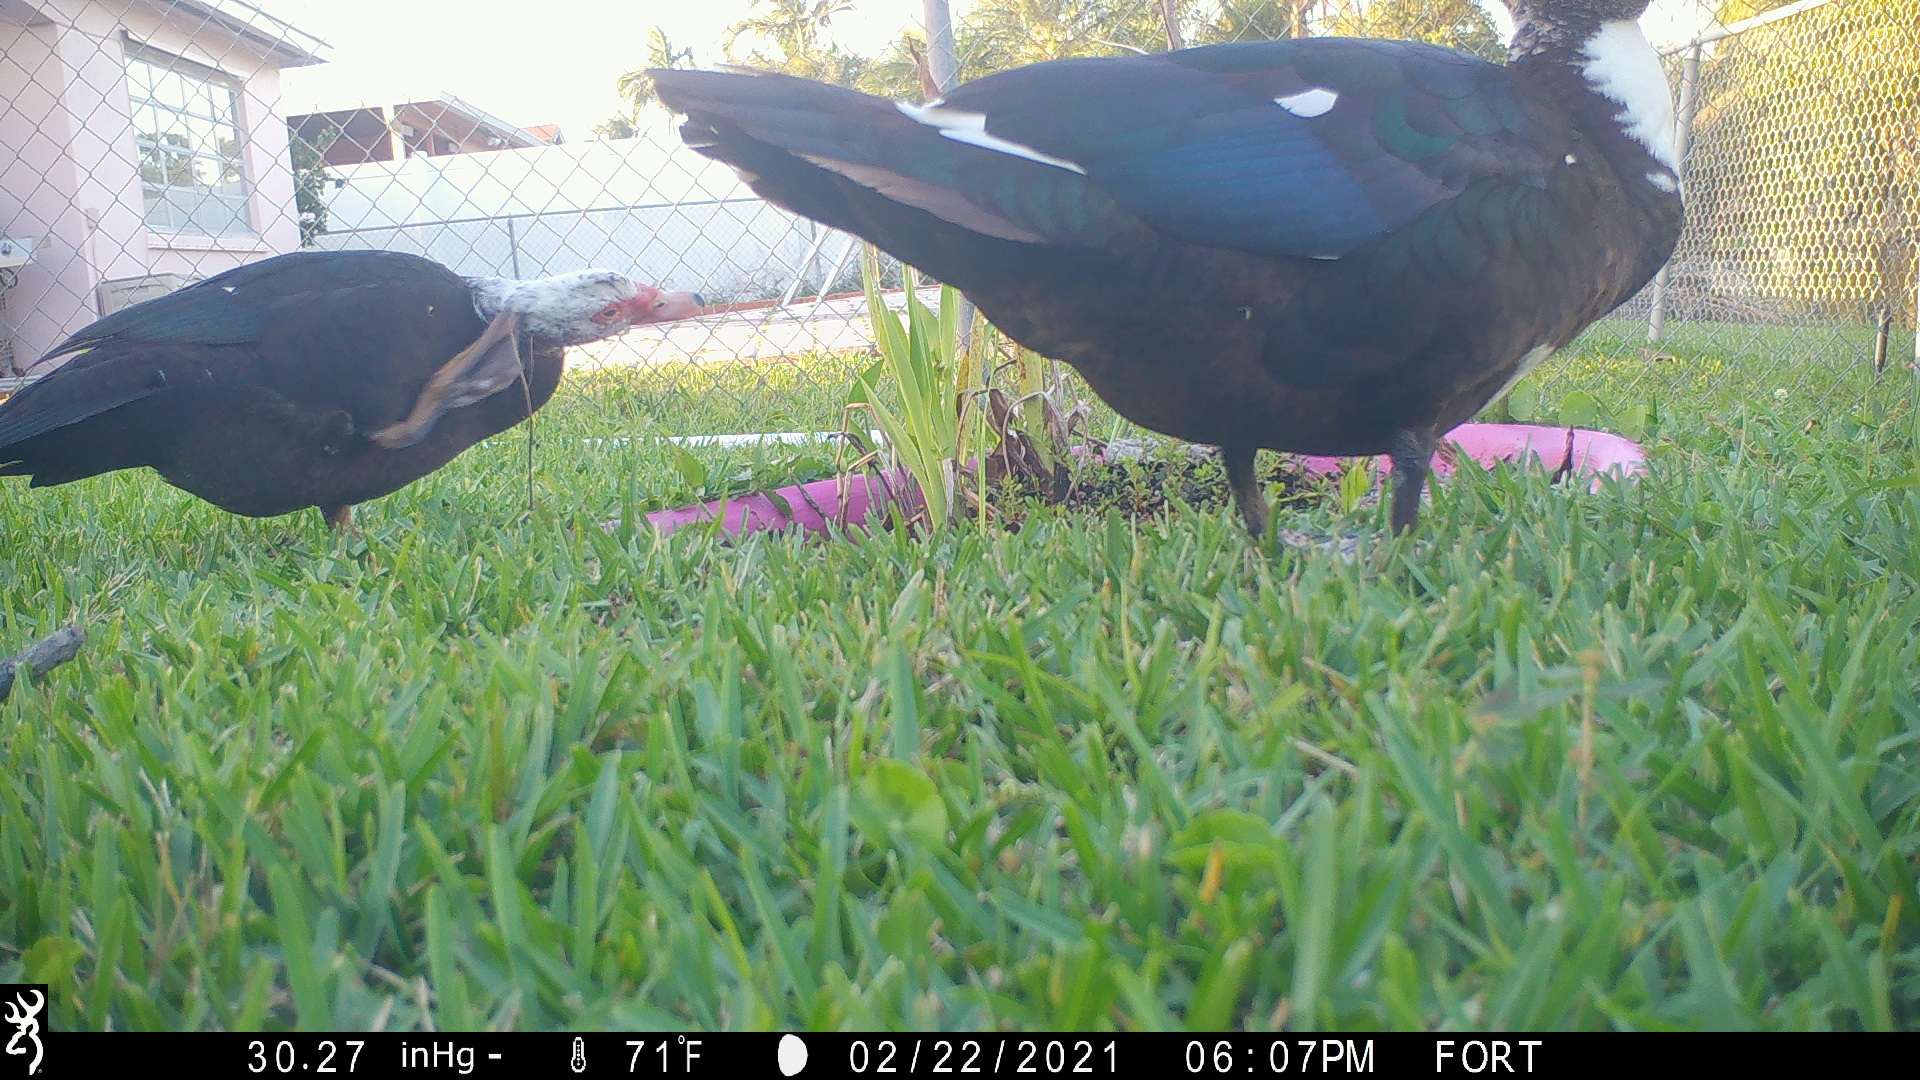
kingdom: Animalia
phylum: Chordata
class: Aves
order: Anseriformes
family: Anatidae
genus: Cairina
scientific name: Cairina moschata
